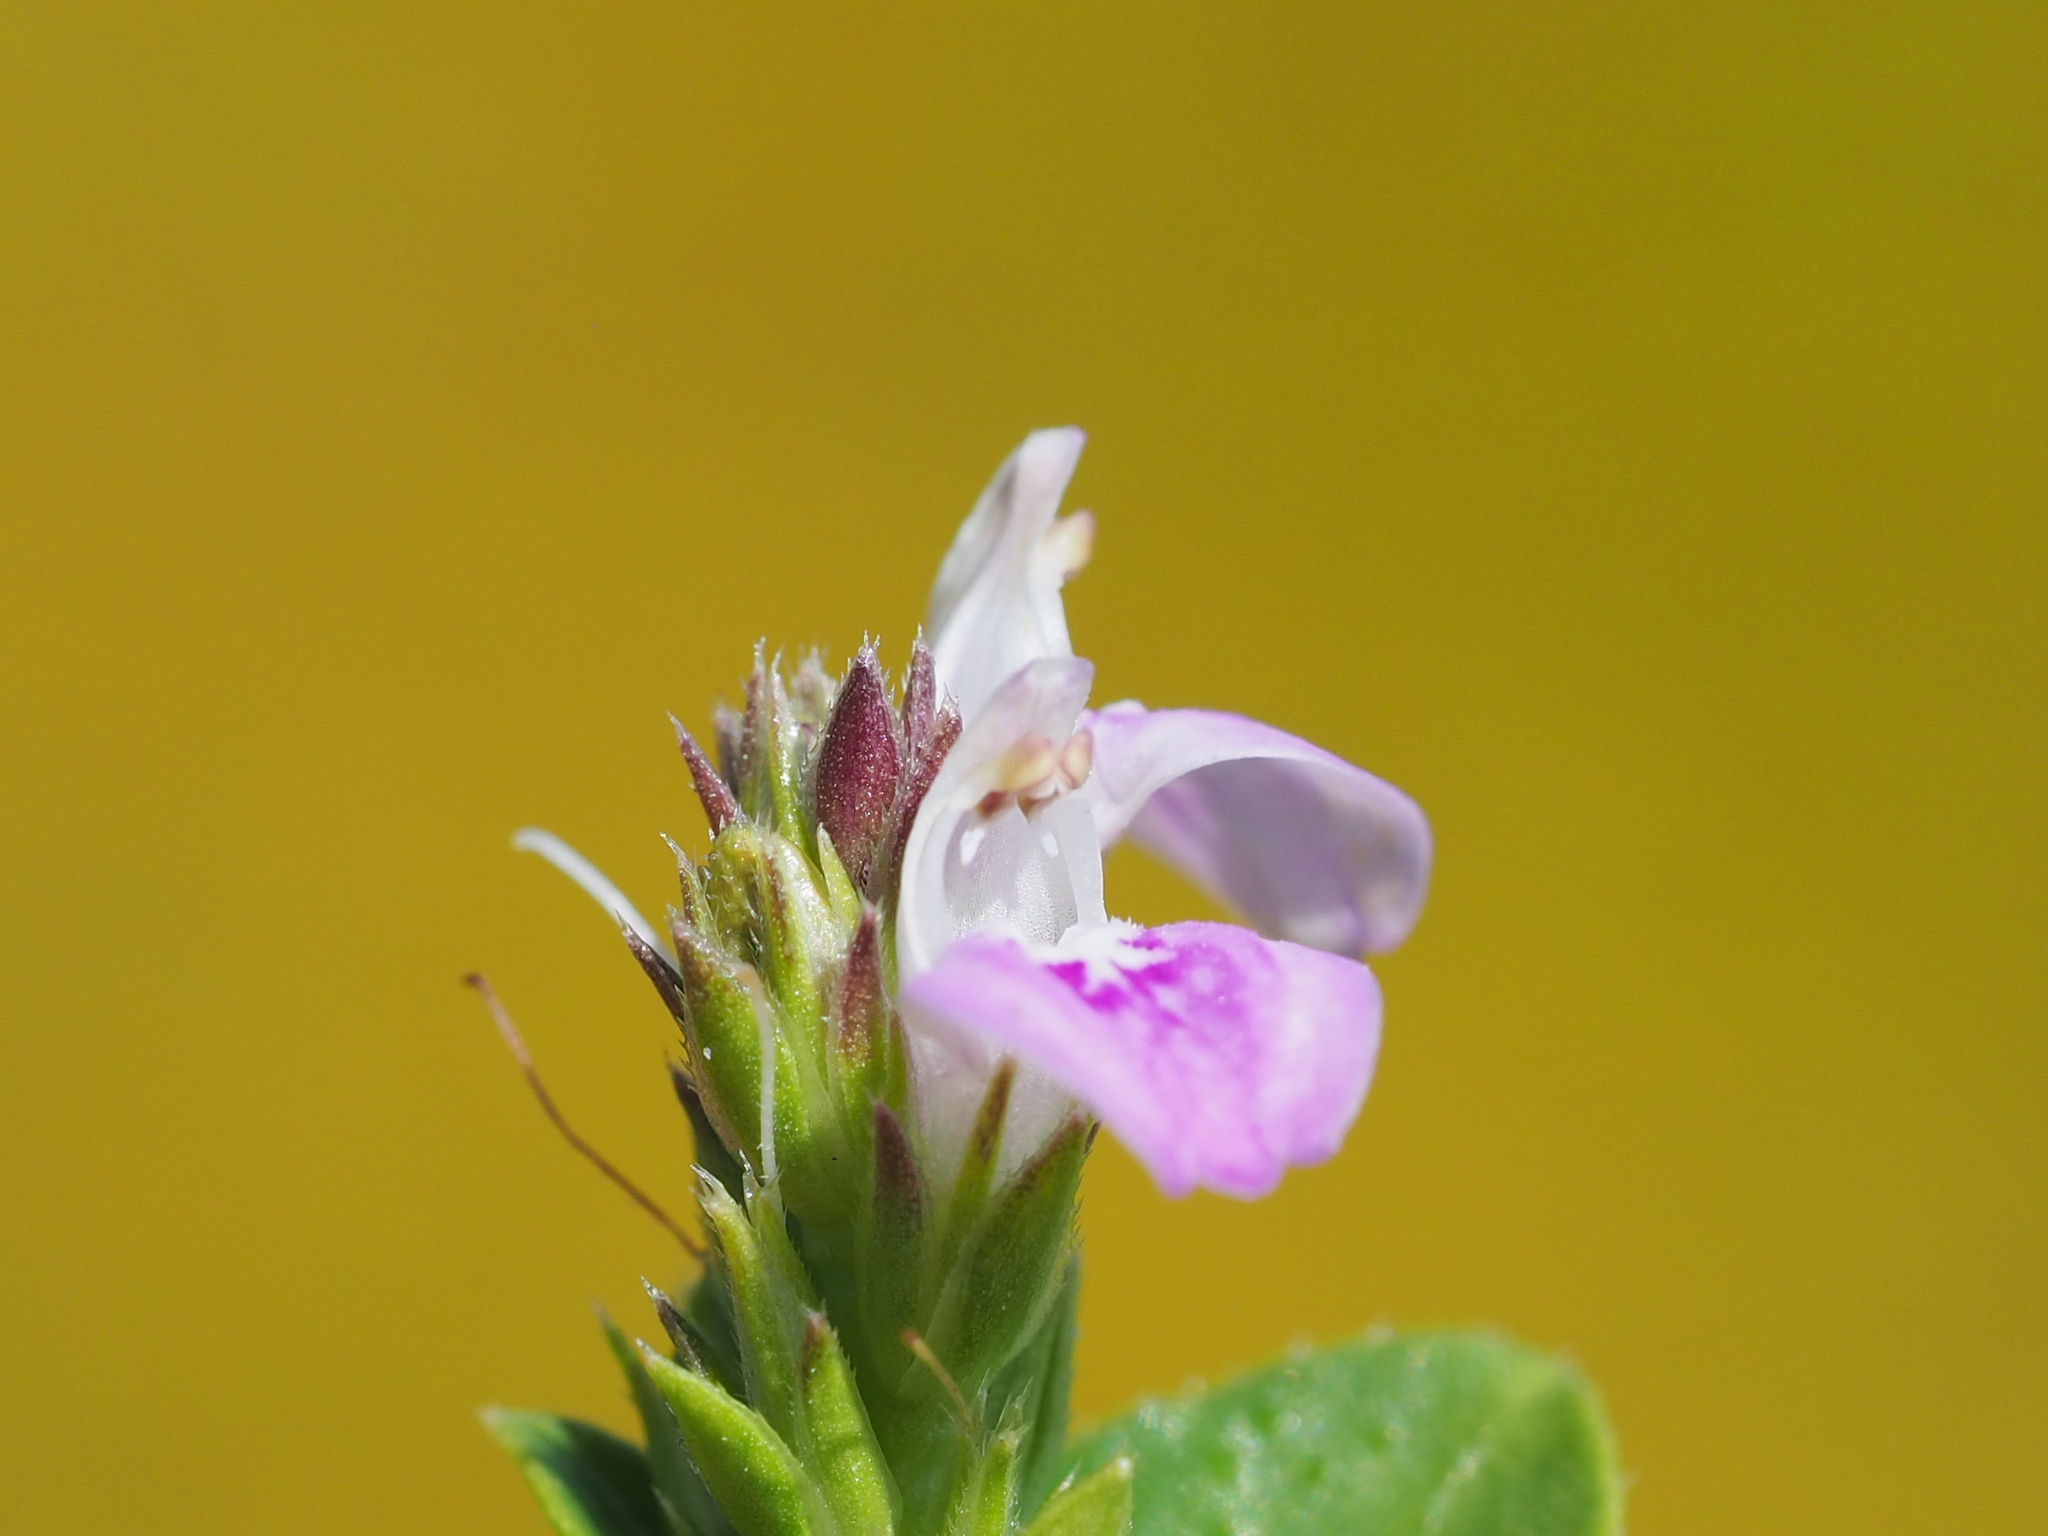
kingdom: Plantae
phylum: Tracheophyta
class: Magnoliopsida
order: Lamiales
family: Acanthaceae
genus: Rostellularia
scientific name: Rostellularia hayatae
